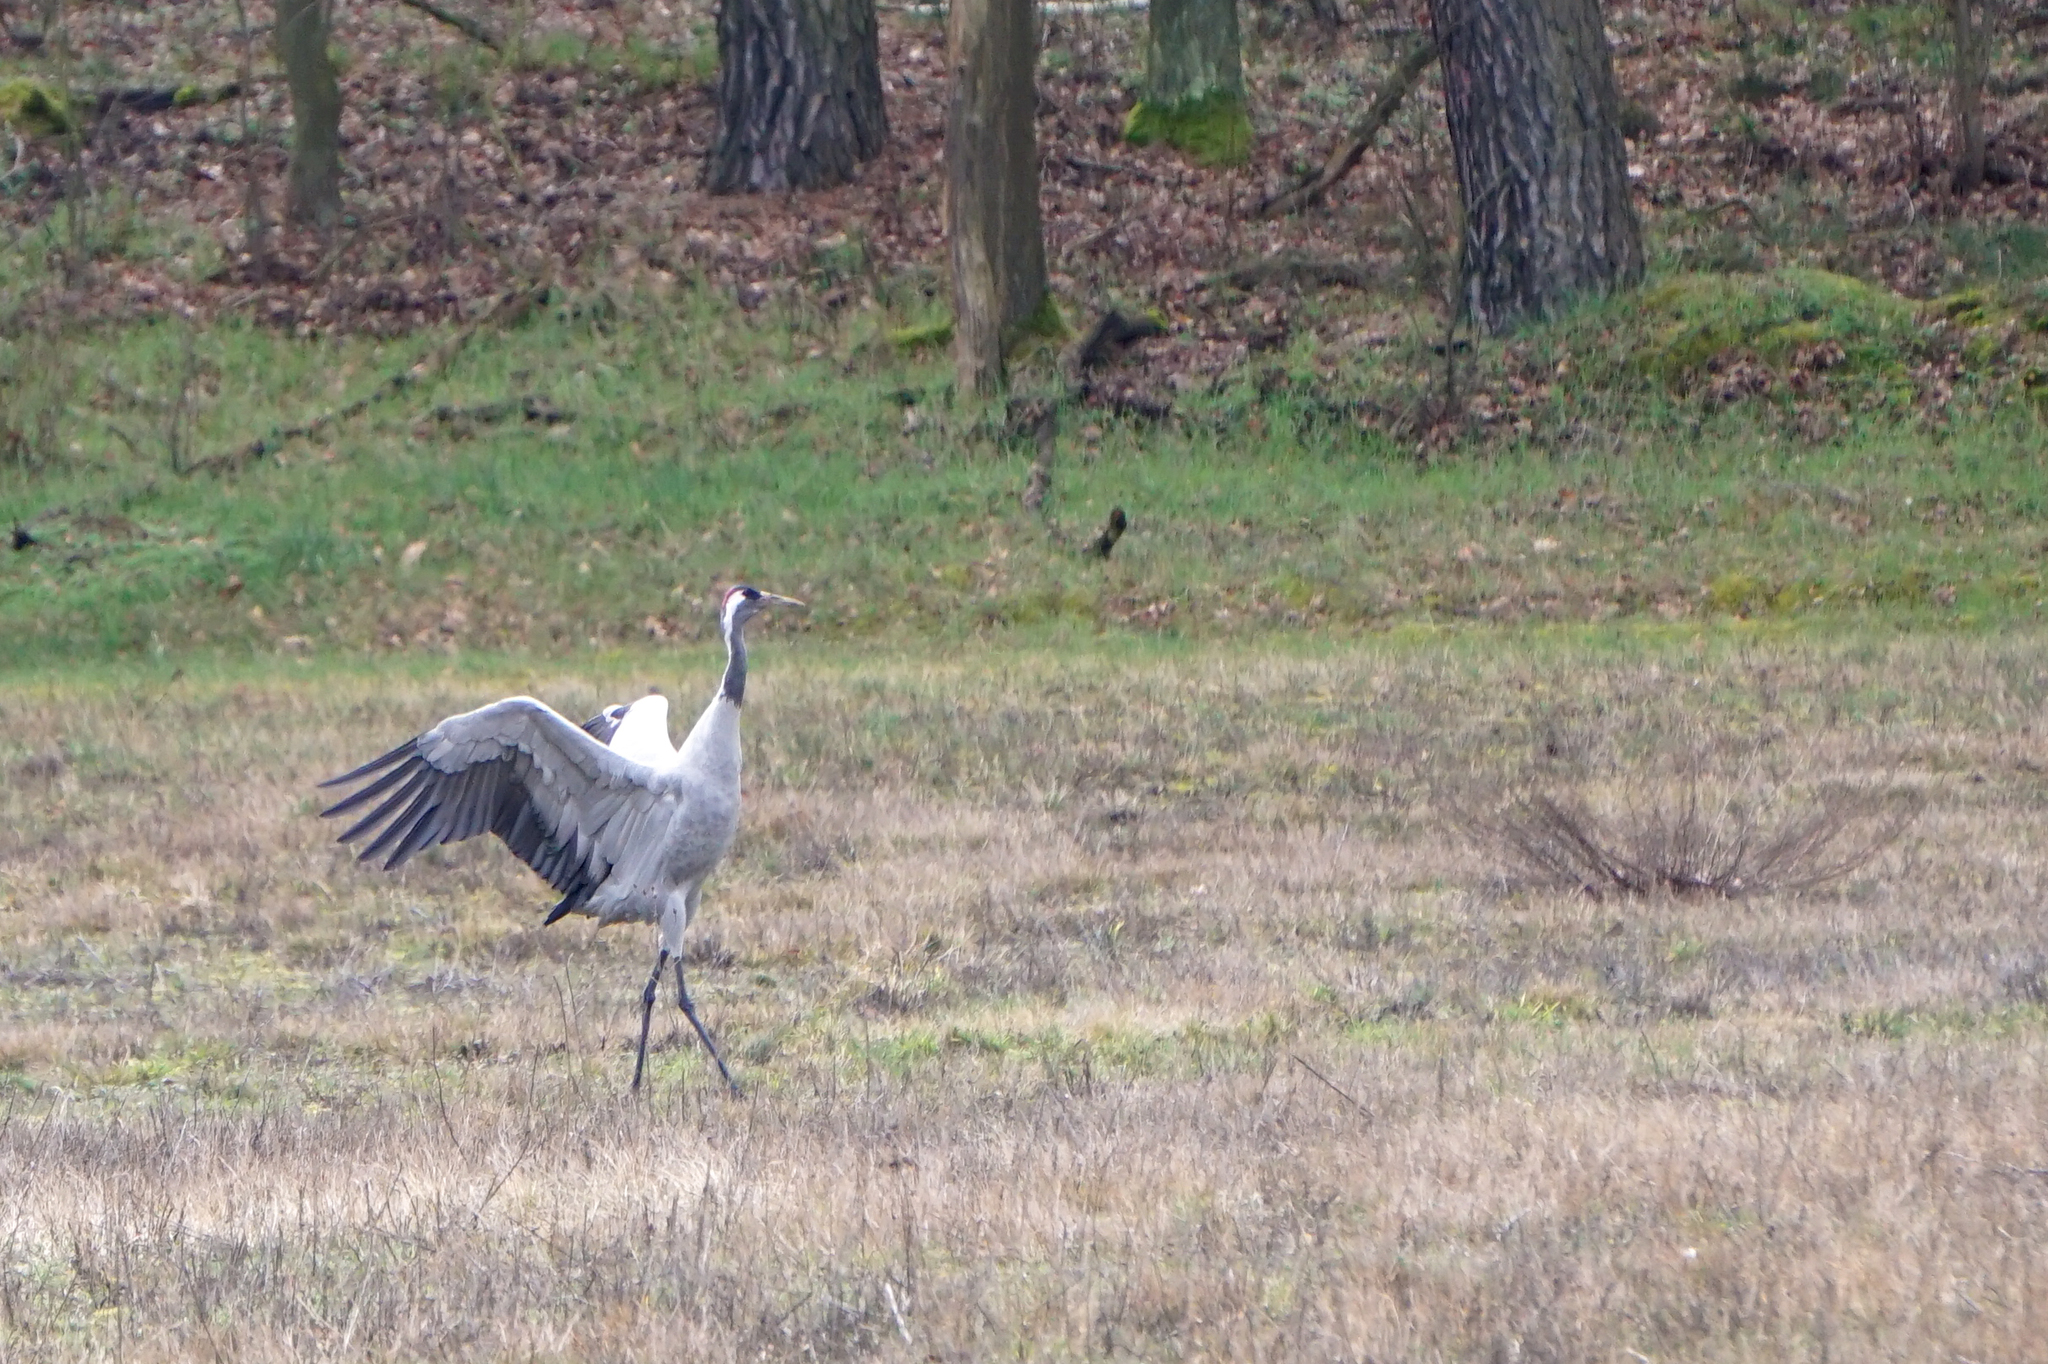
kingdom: Animalia
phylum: Chordata
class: Aves
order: Gruiformes
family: Gruidae
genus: Grus
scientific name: Grus grus
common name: Common crane
